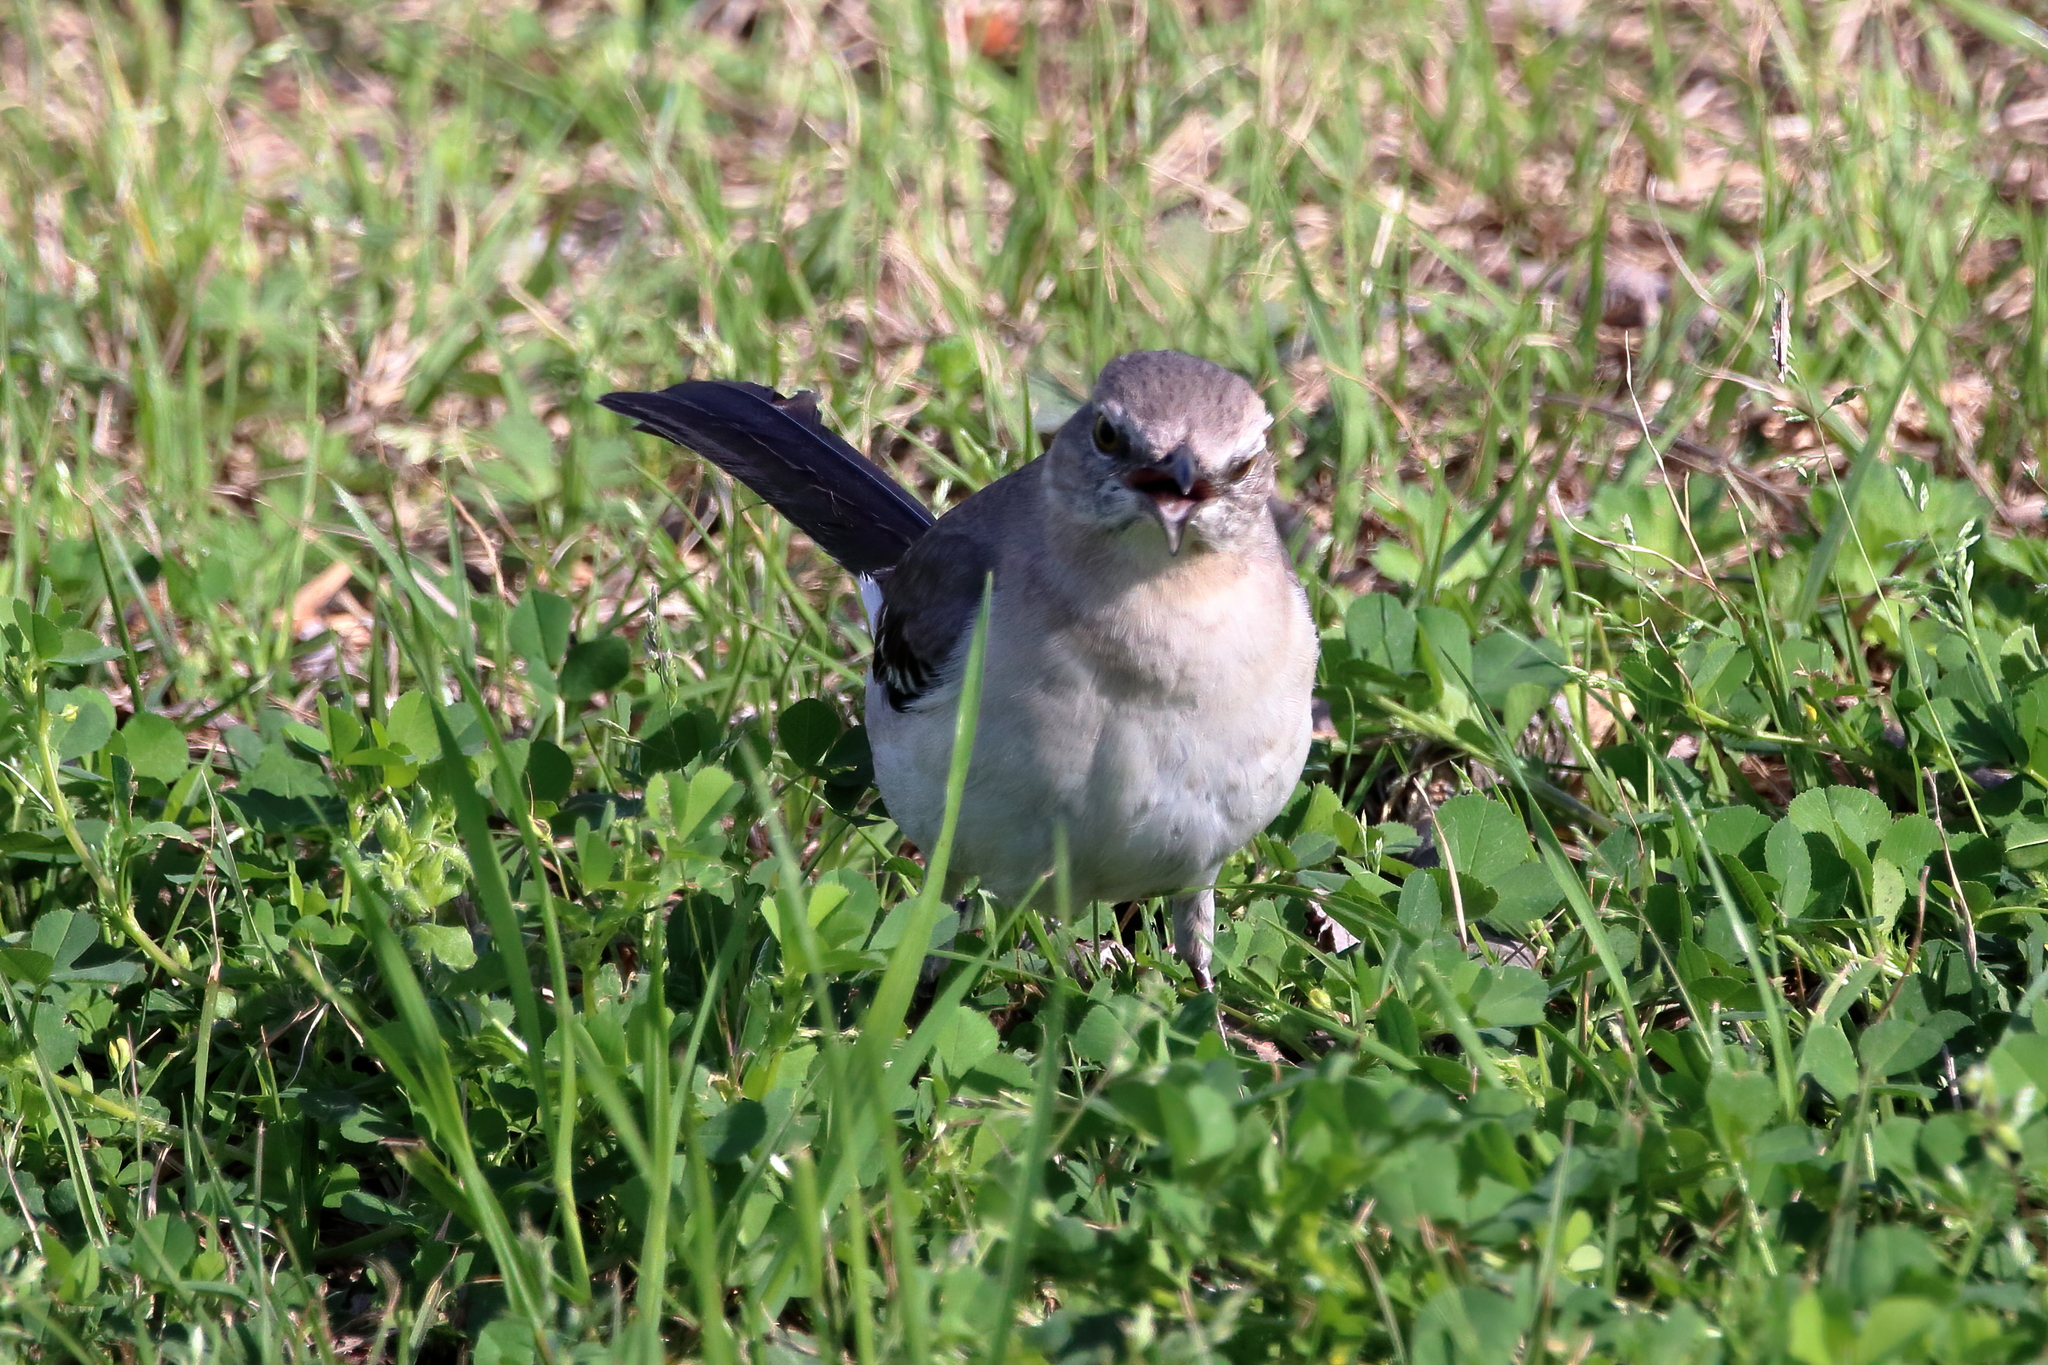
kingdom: Animalia
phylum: Chordata
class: Aves
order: Passeriformes
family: Mimidae
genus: Mimus
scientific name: Mimus polyglottos
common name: Northern mockingbird
